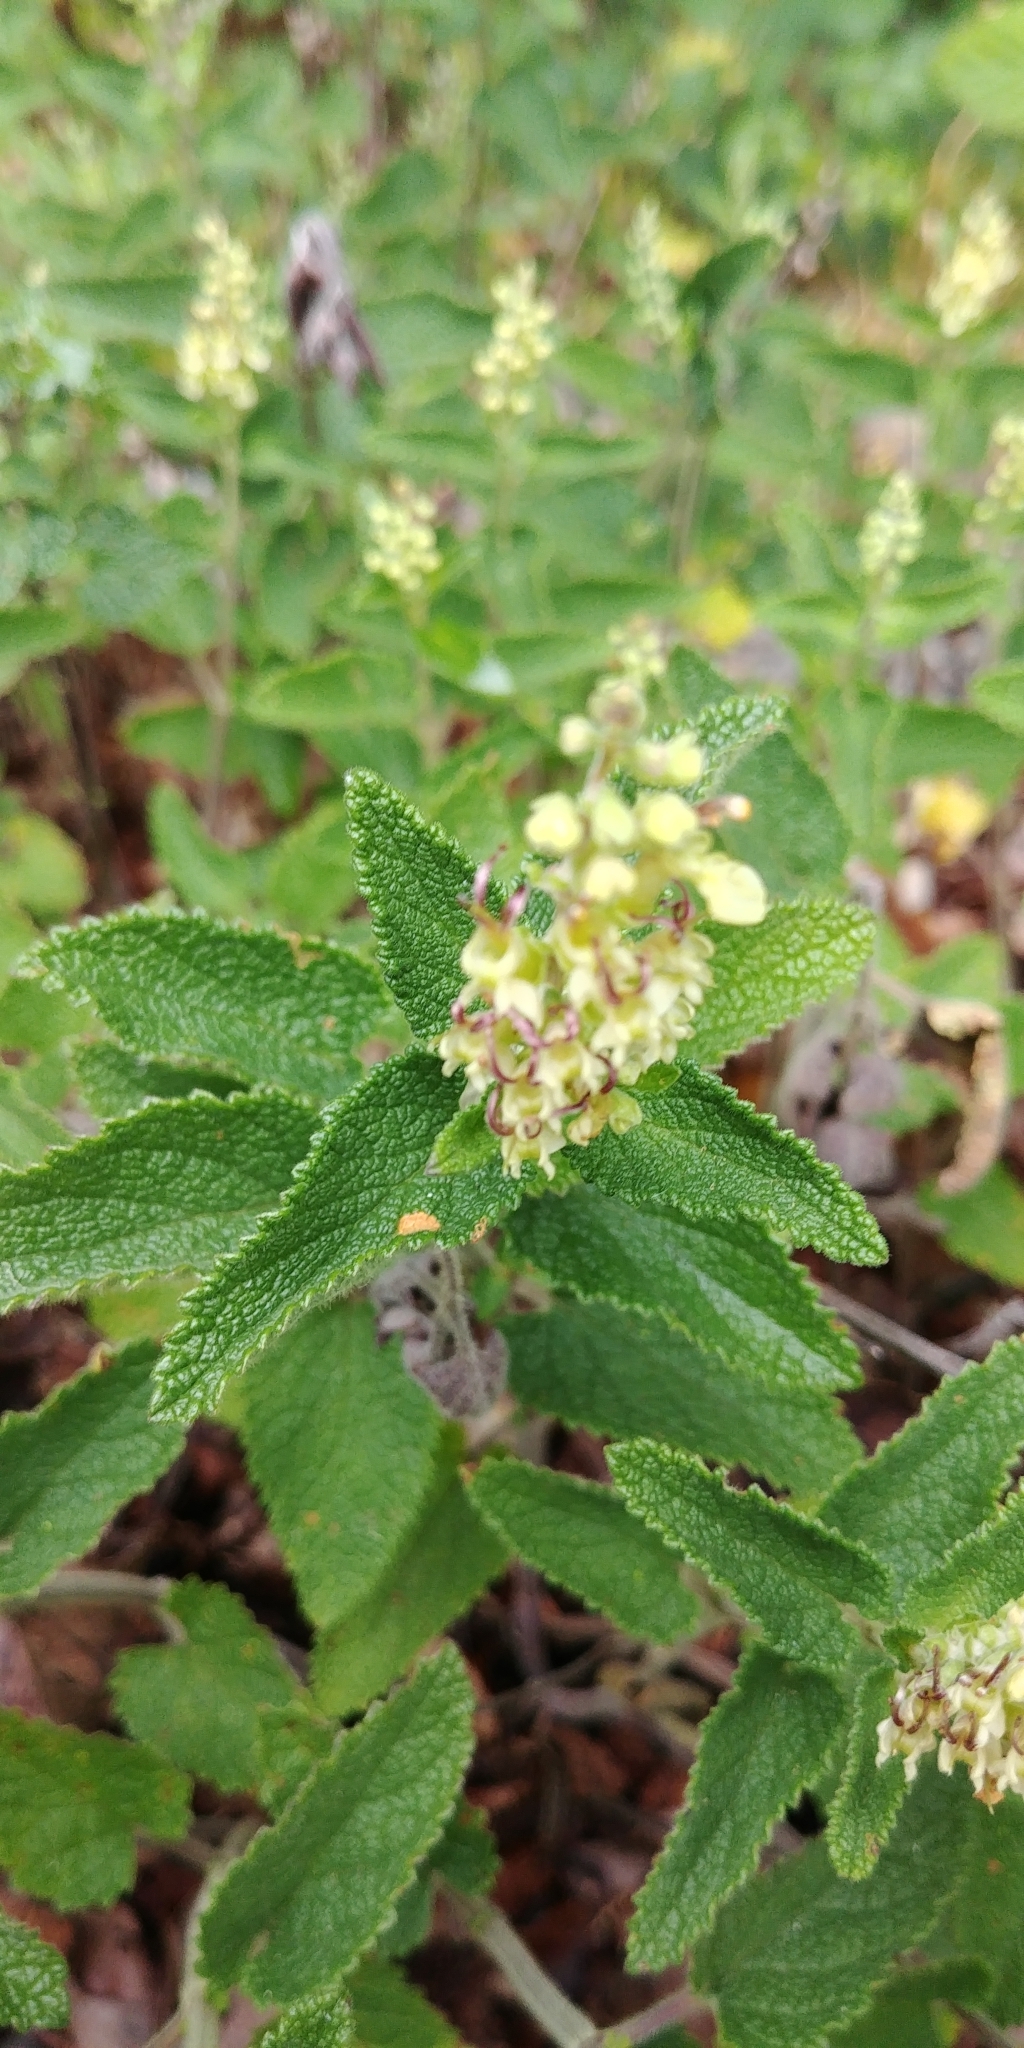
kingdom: Plantae
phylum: Tracheophyta
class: Magnoliopsida
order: Lamiales
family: Lamiaceae
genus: Teucrium
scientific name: Teucrium scorodonia
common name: Woodland germander
